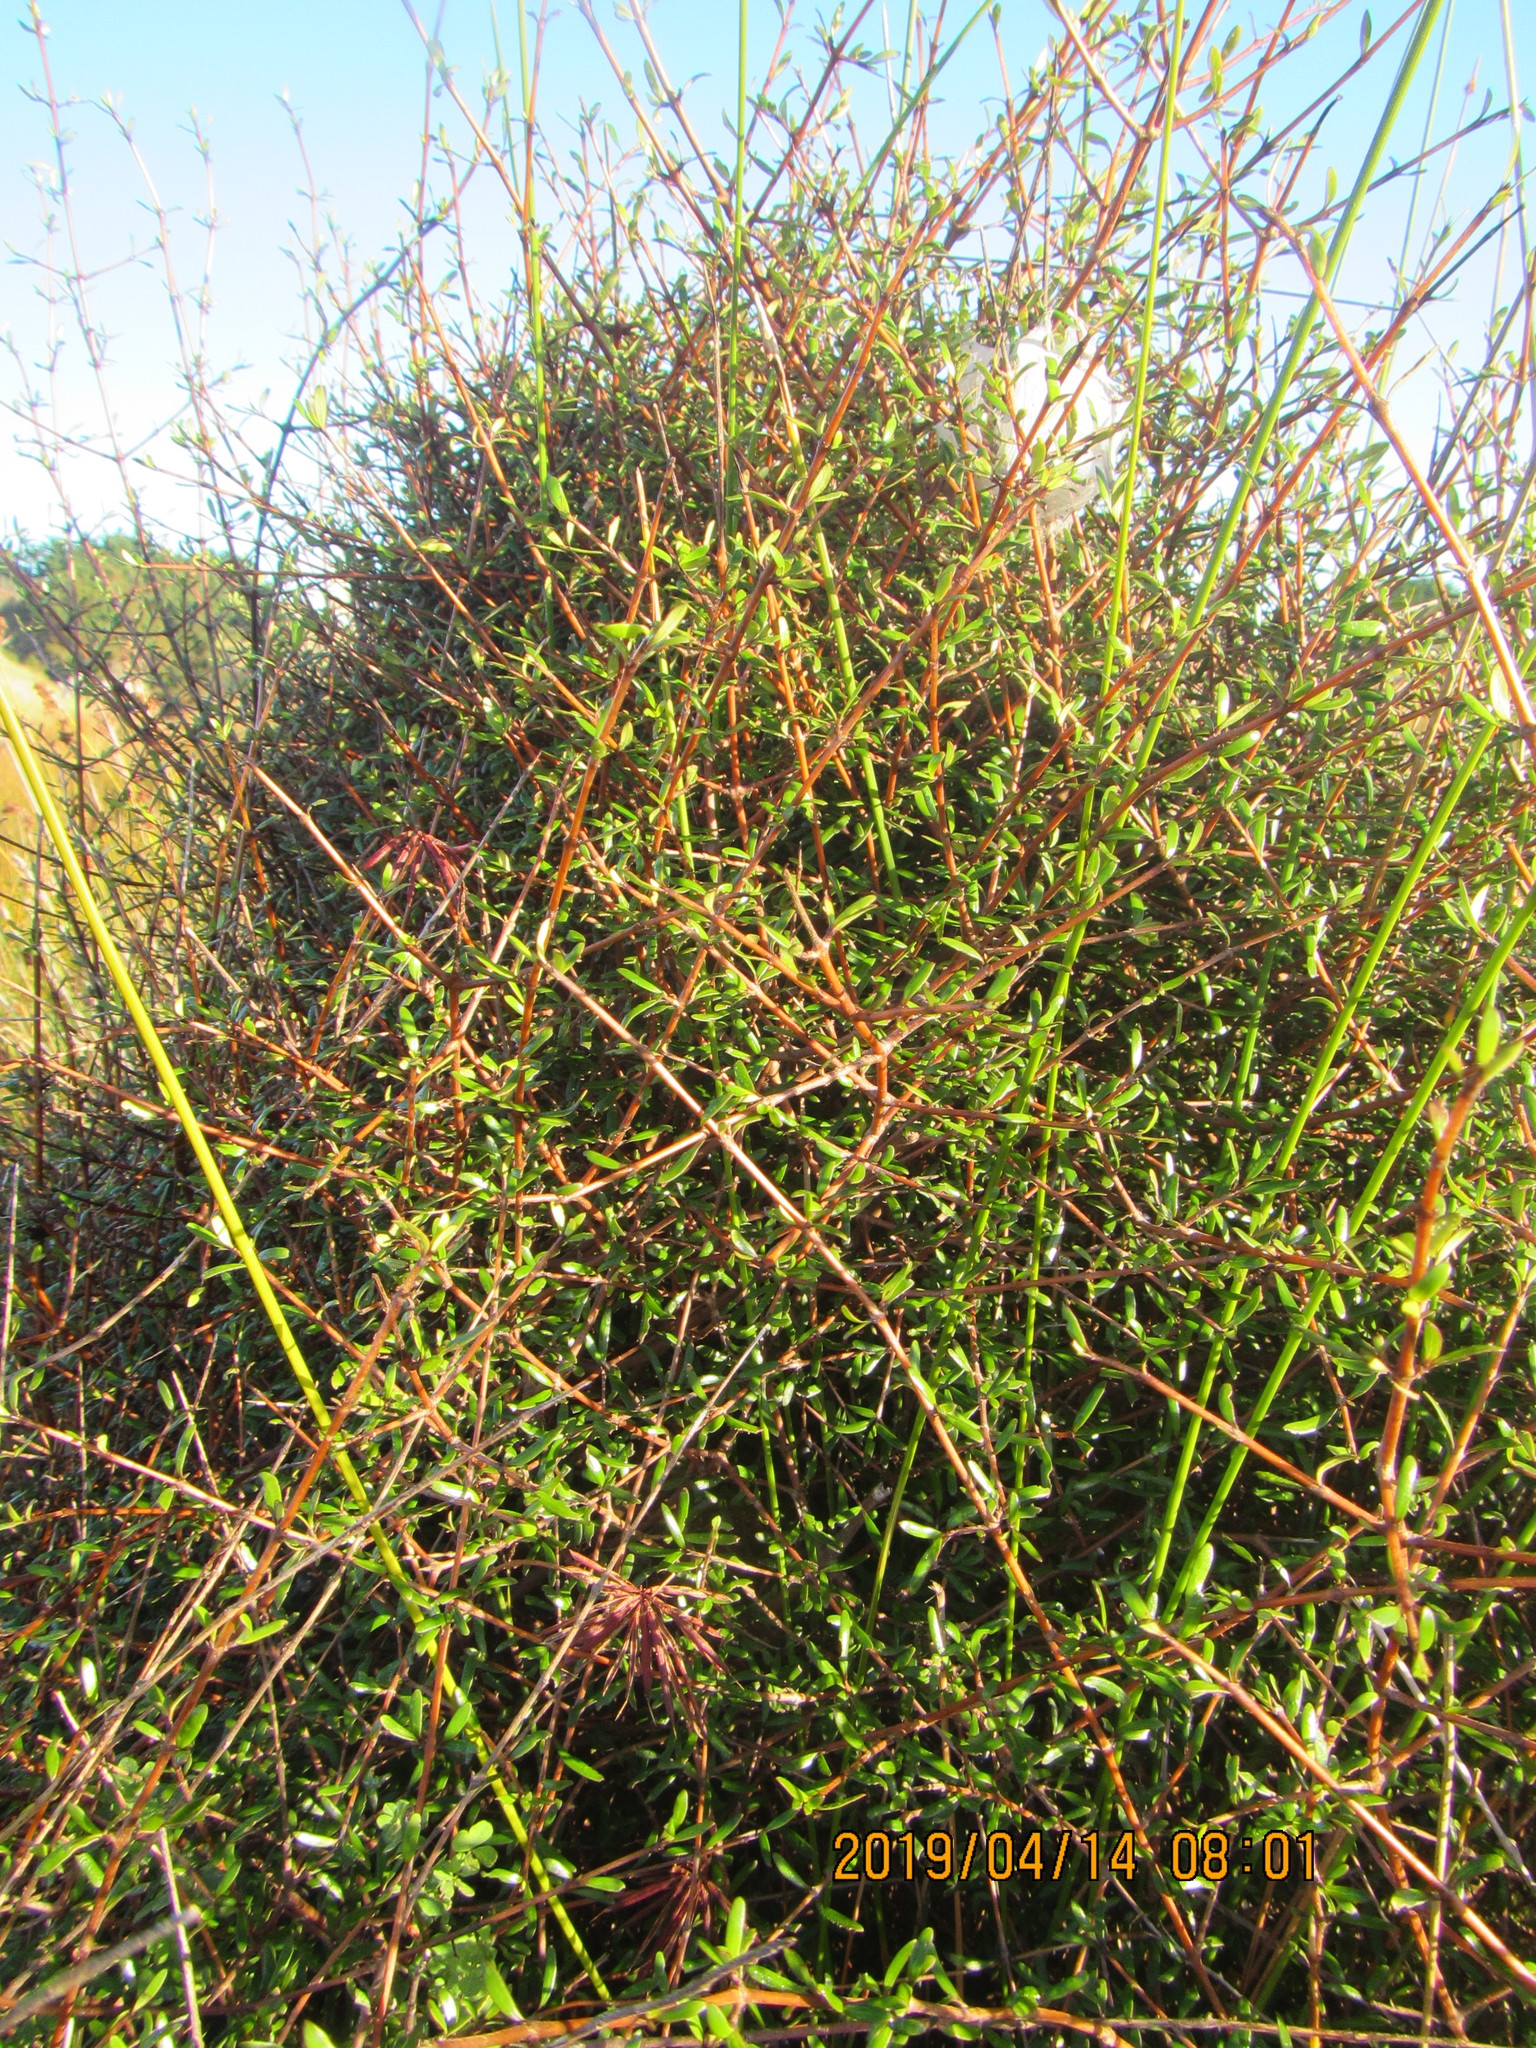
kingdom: Plantae
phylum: Tracheophyta
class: Magnoliopsida
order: Gentianales
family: Rubiaceae
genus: Coprosma
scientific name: Coprosma propinqua
